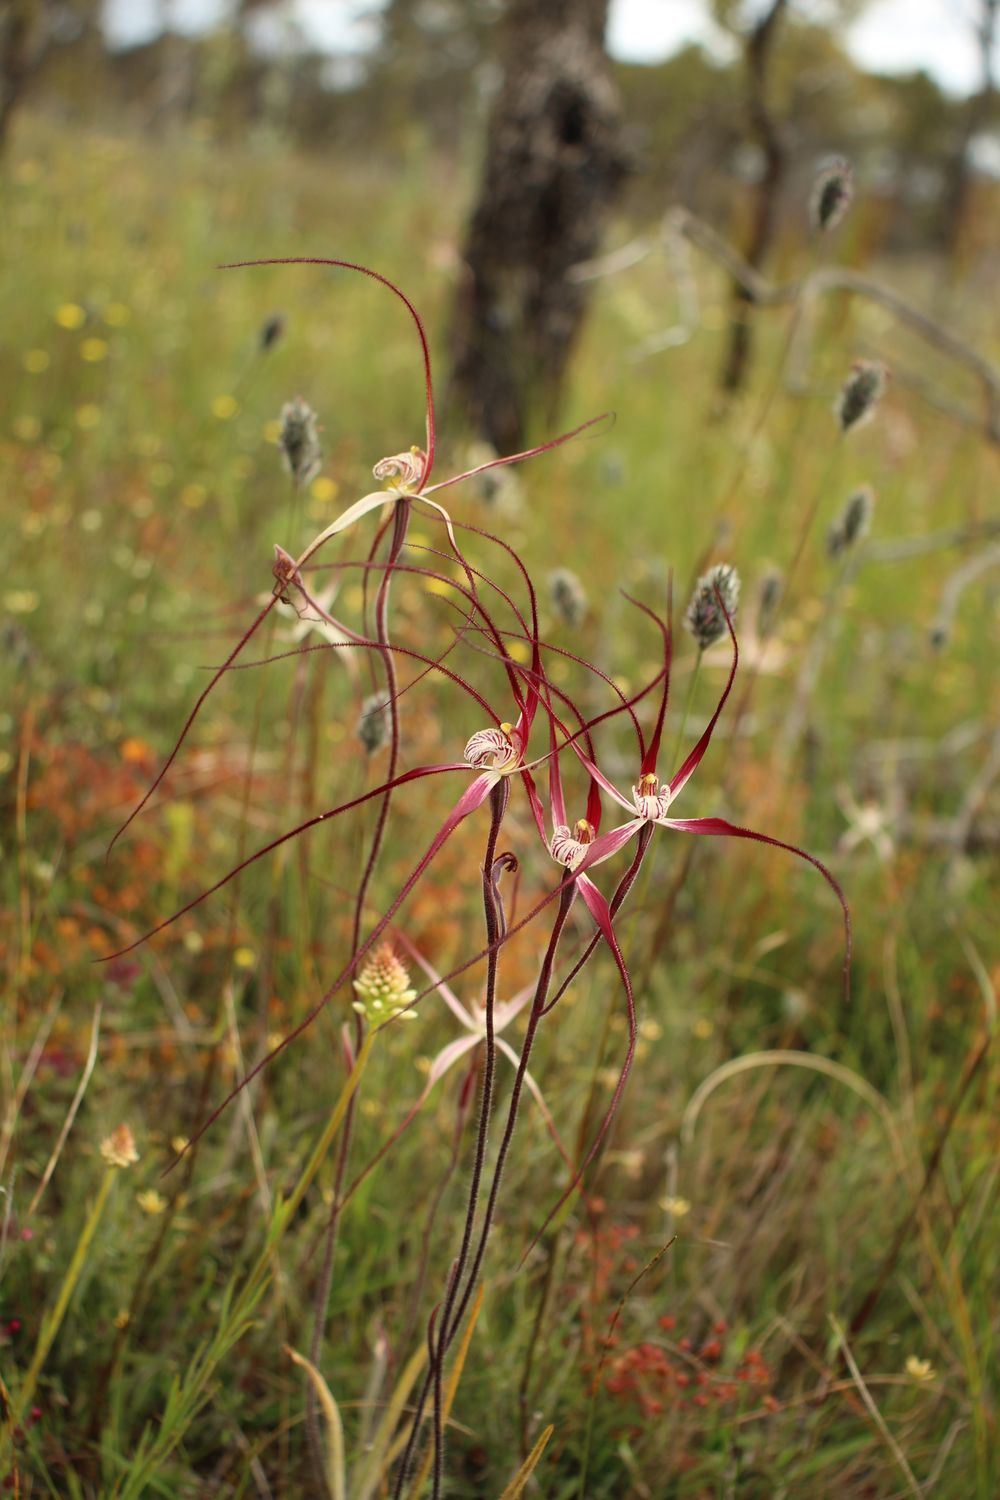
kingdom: Plantae
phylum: Tracheophyta
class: Liliopsida
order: Asparagales
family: Orchidaceae
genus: Caladenia
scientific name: Caladenia polychroma
